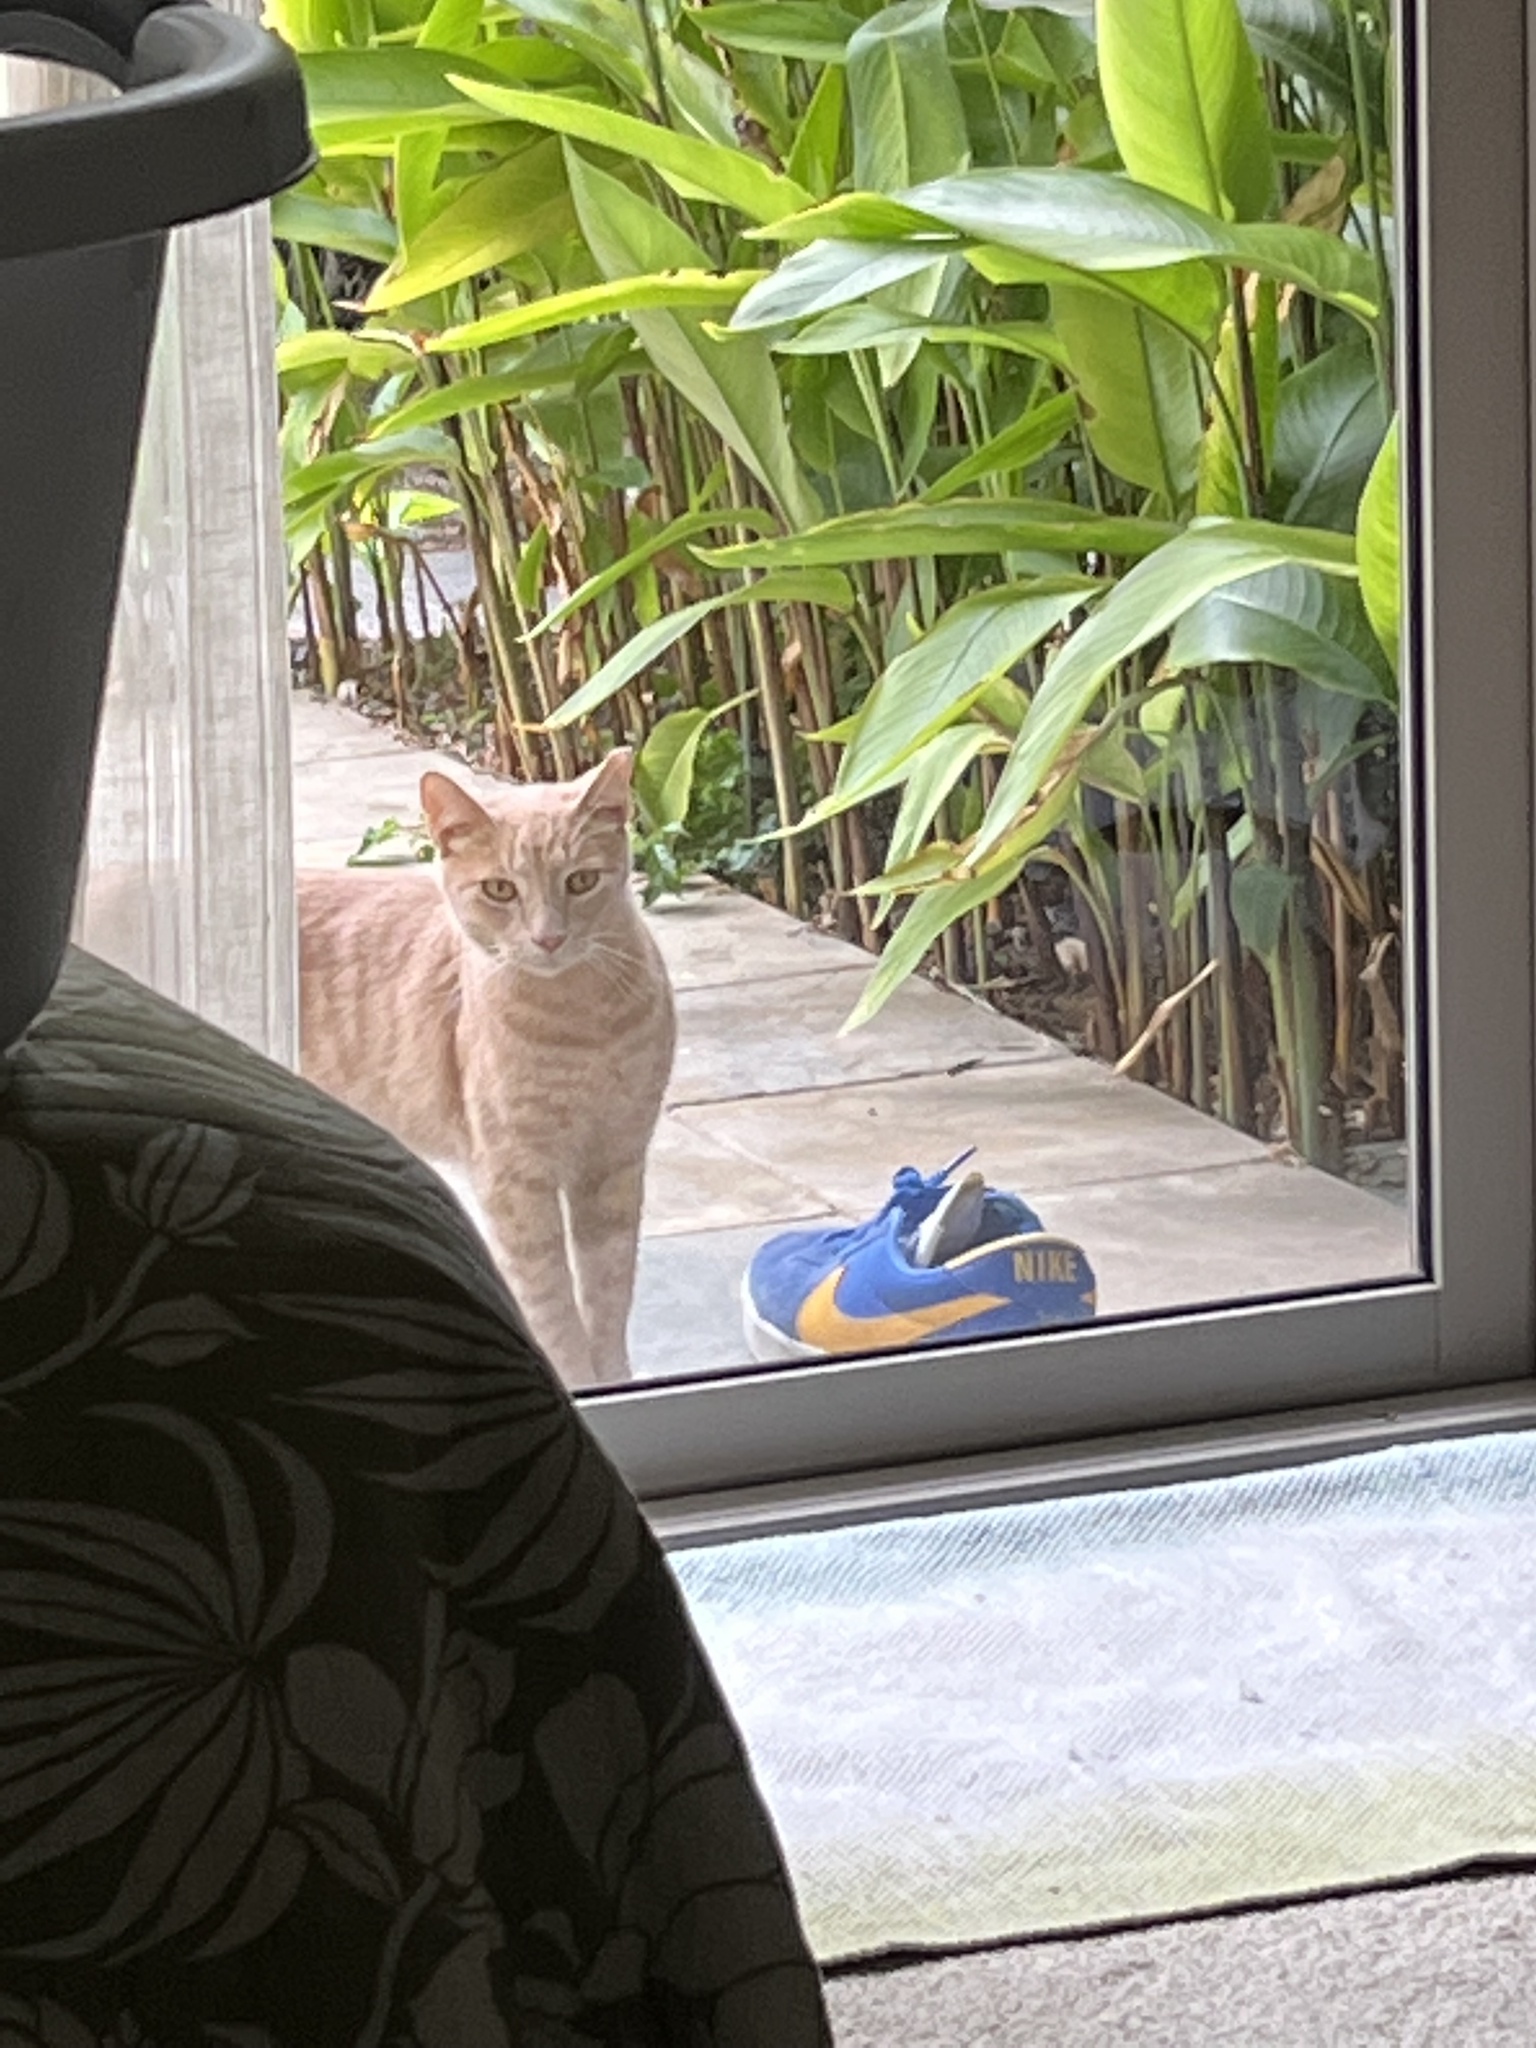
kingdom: Animalia
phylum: Chordata
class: Mammalia
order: Carnivora
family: Felidae
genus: Felis
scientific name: Felis catus
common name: Domestic cat
